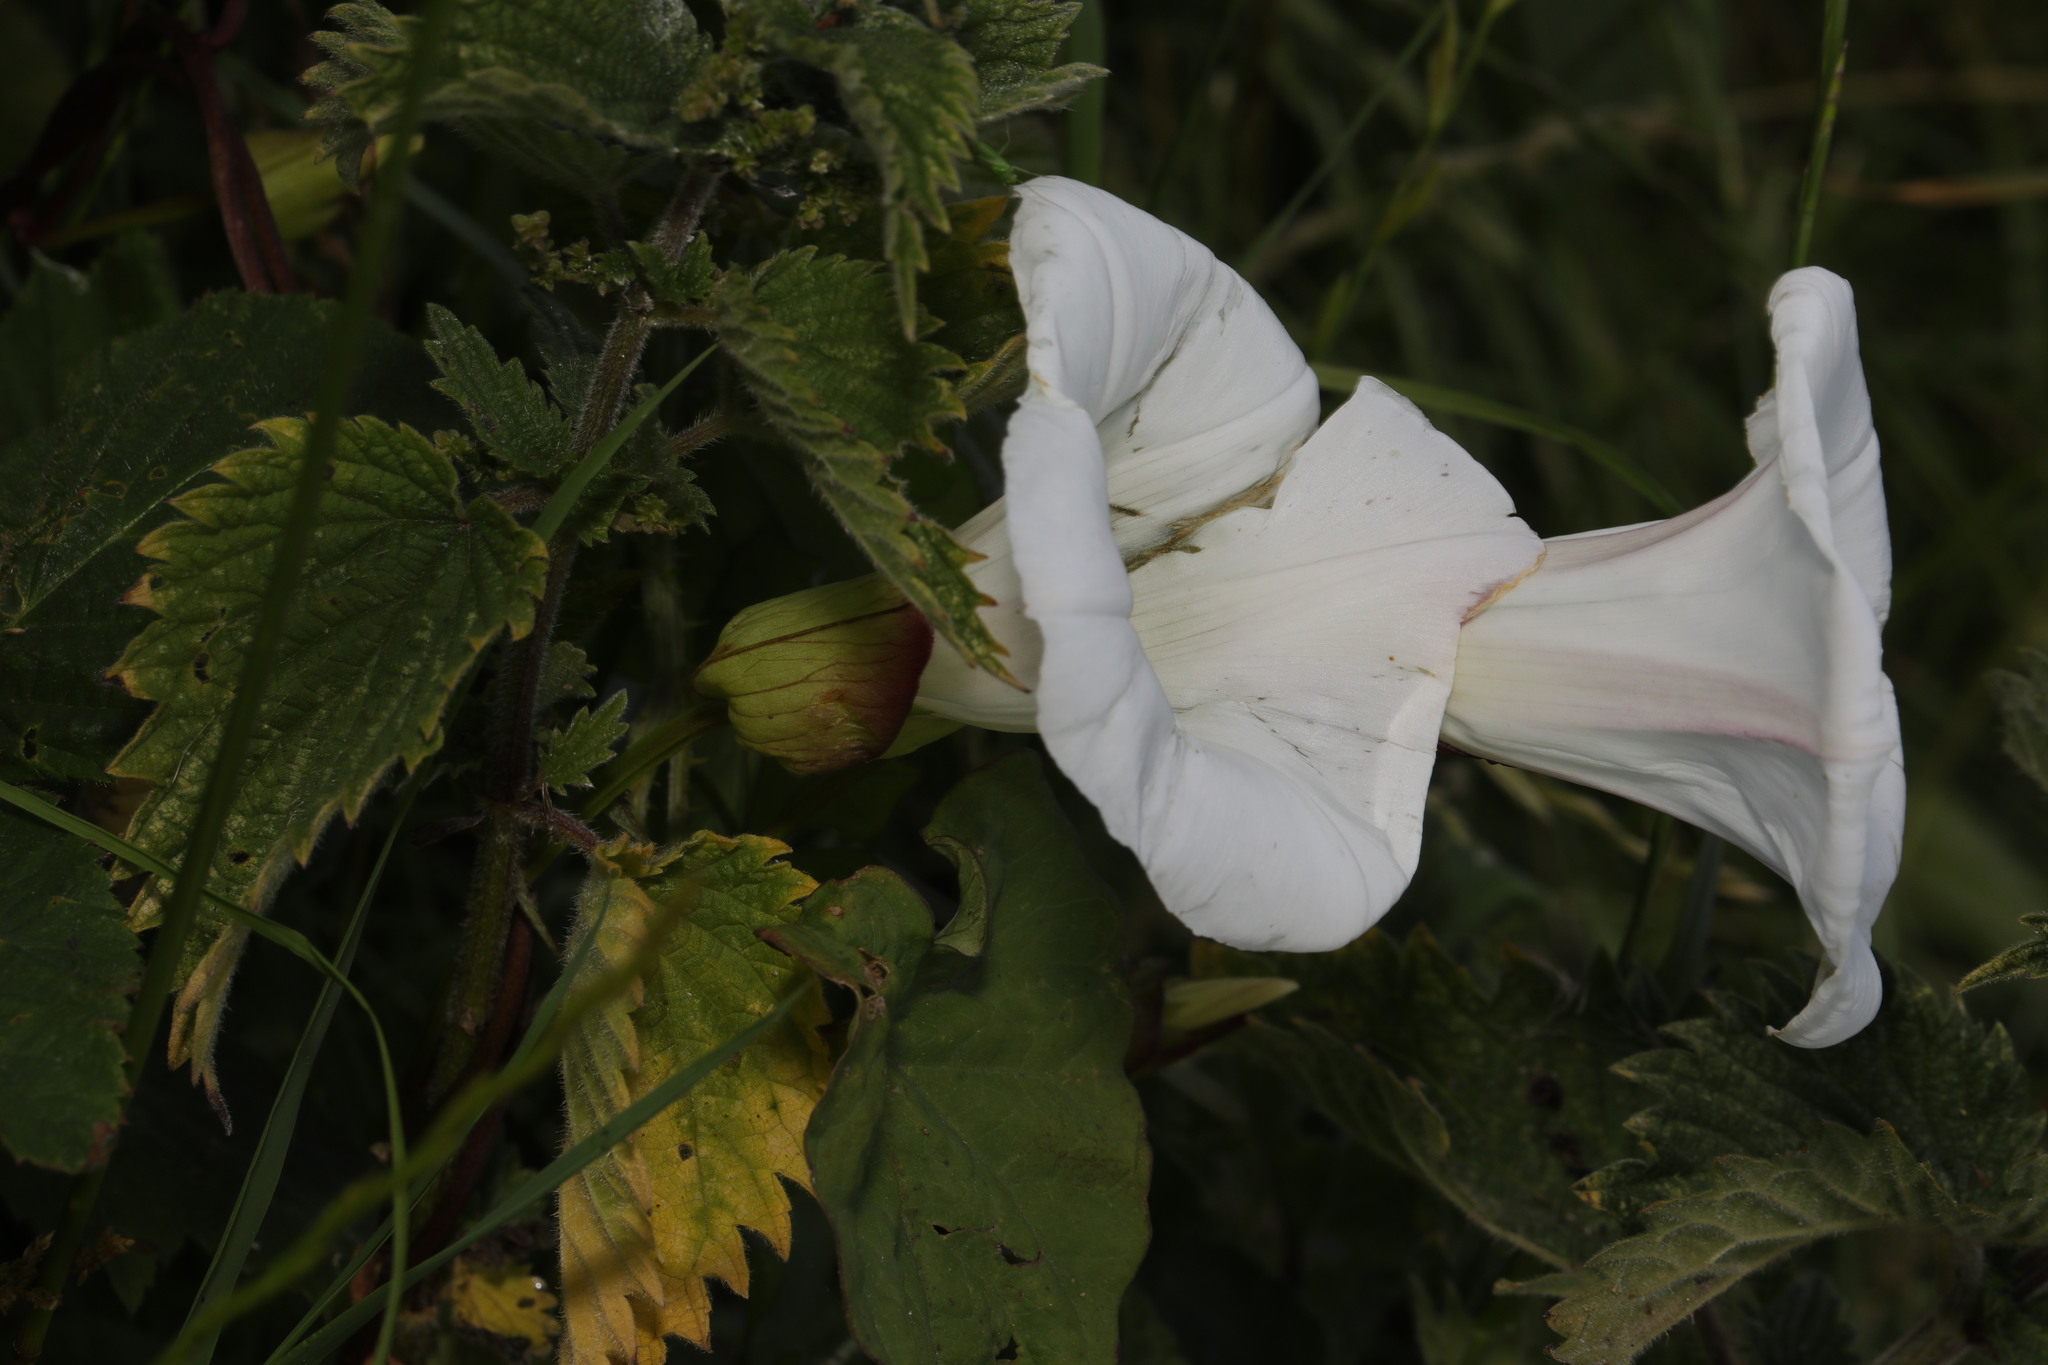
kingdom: Plantae
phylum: Tracheophyta
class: Magnoliopsida
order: Solanales
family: Convolvulaceae
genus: Calystegia
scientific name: Calystegia silvatica
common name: Large bindweed
